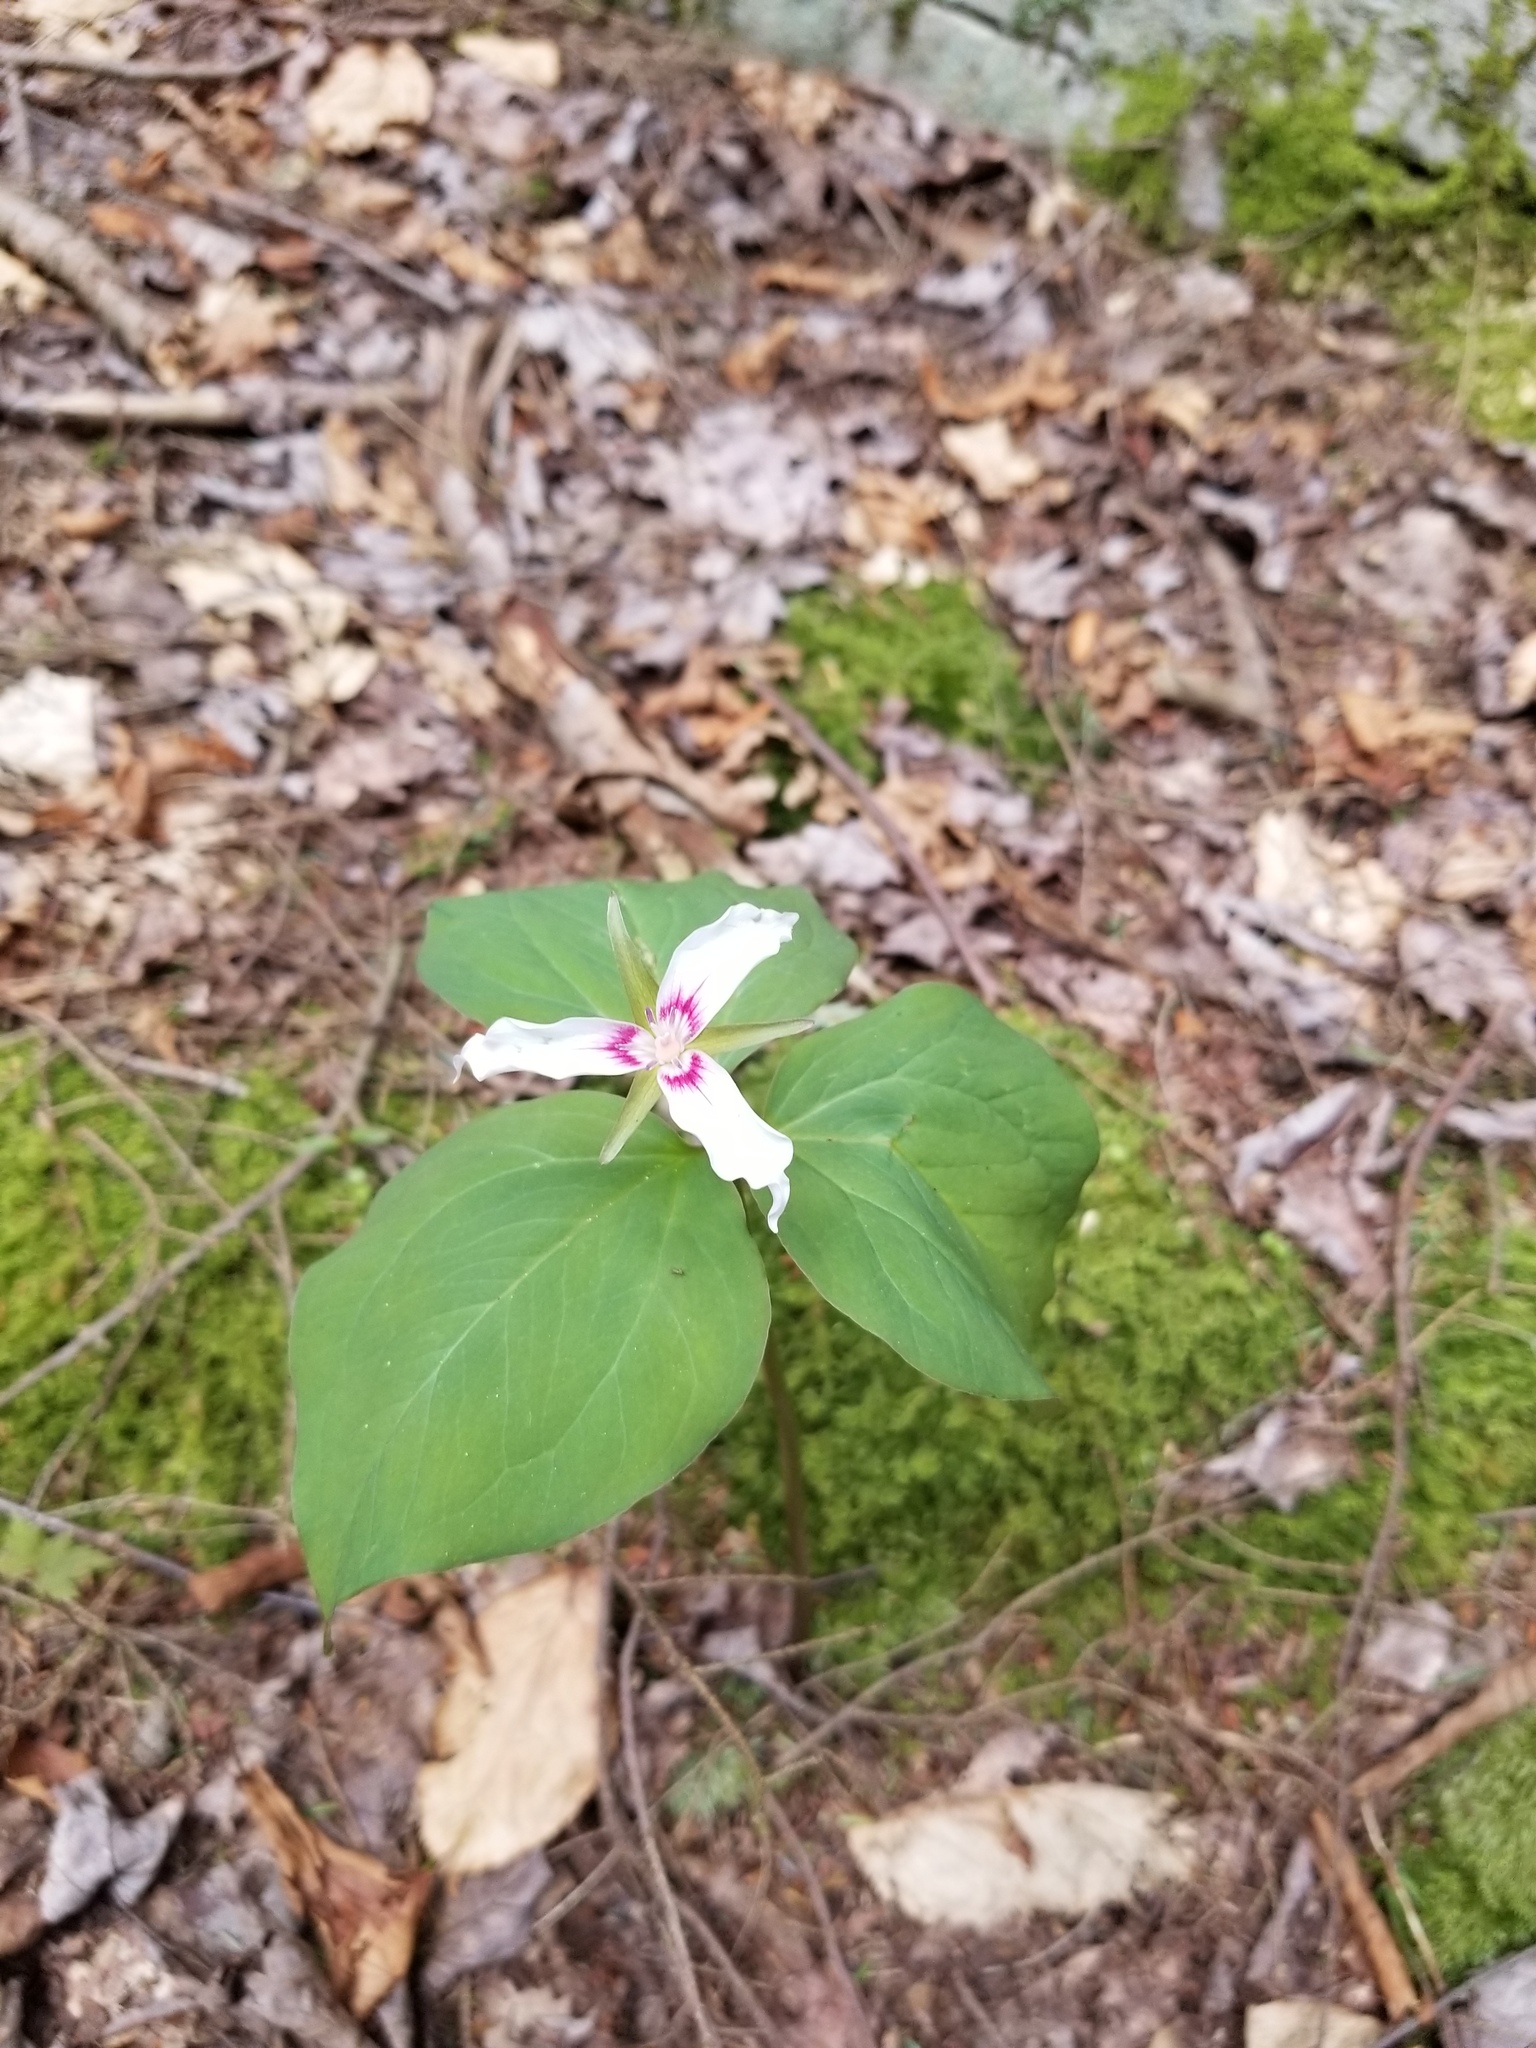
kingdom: Plantae
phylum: Tracheophyta
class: Liliopsida
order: Liliales
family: Melanthiaceae
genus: Trillium
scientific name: Trillium undulatum
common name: Paint trillium
